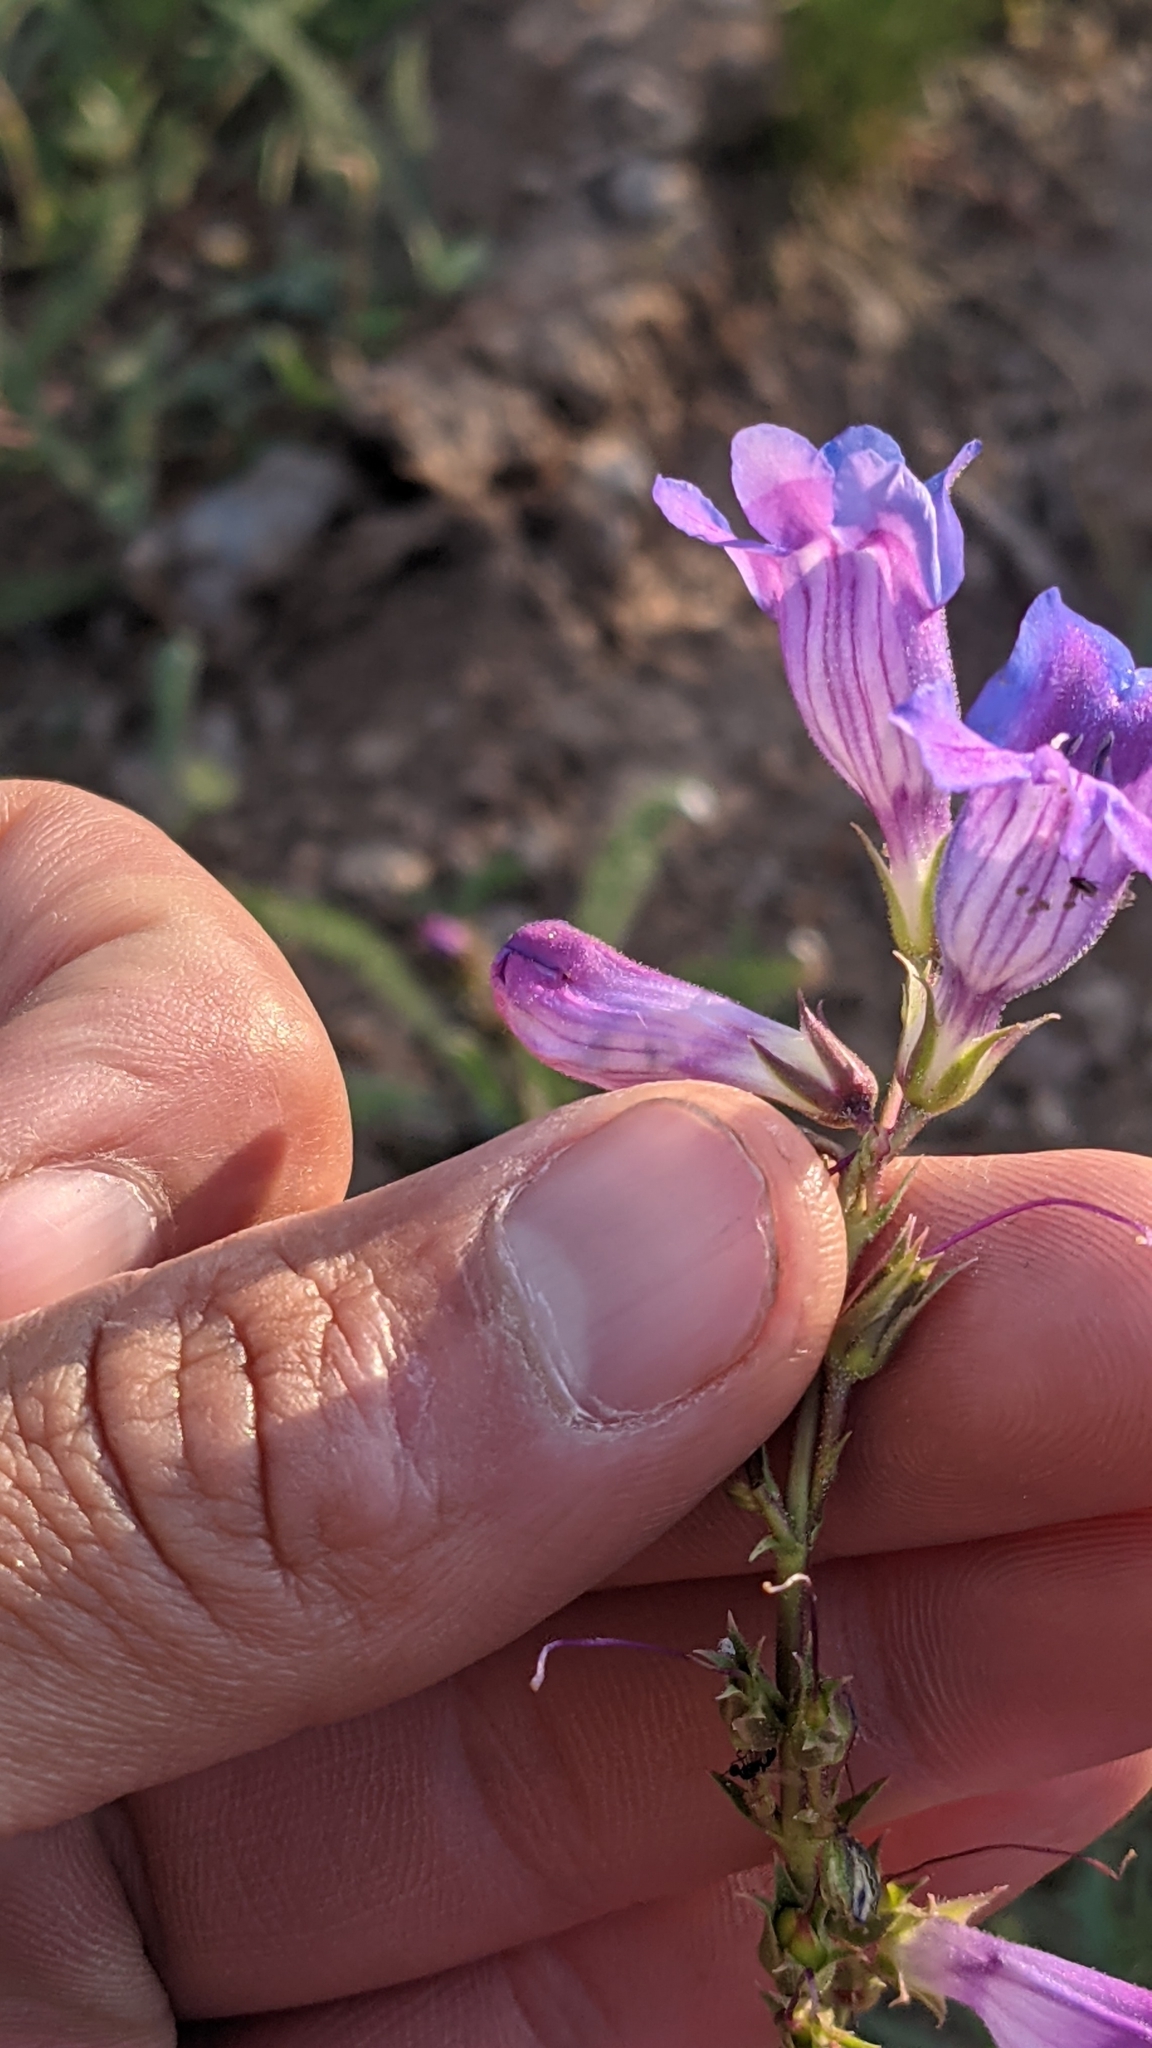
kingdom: Plantae
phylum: Tracheophyta
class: Magnoliopsida
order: Lamiales
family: Plantaginaceae
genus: Penstemon
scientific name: Penstemon leiophyllus
